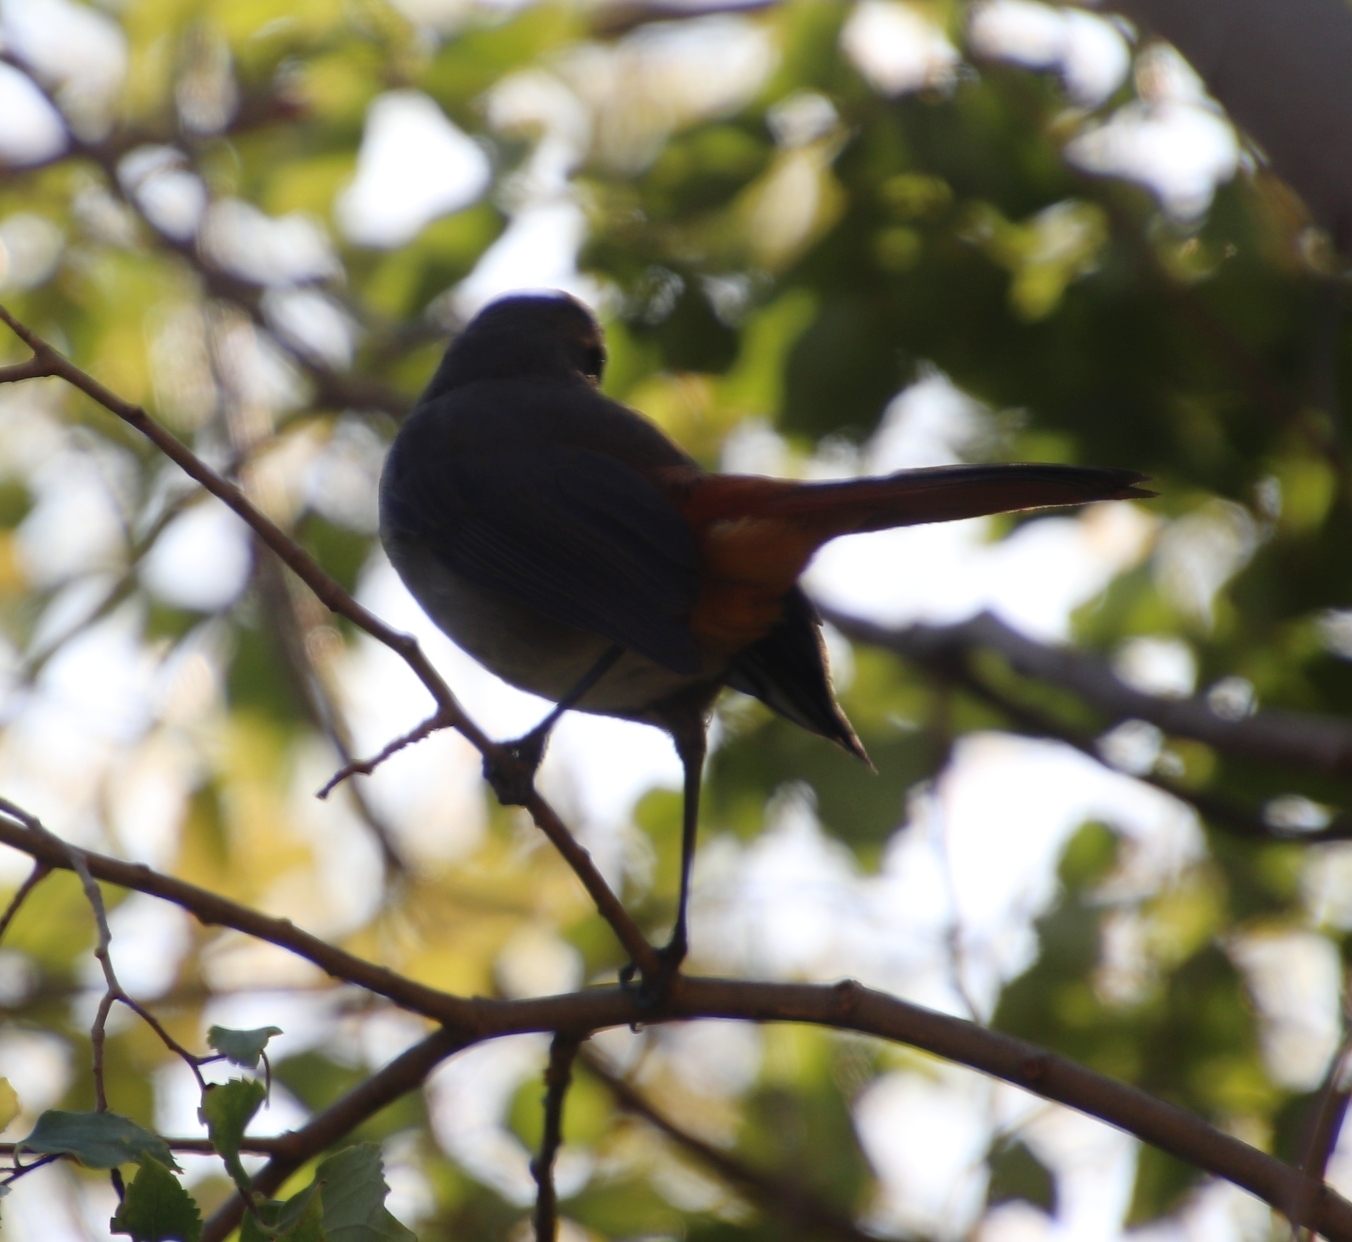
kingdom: Animalia
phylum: Chordata
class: Aves
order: Passeriformes
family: Muscicapidae
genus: Cossypha
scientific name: Cossypha caffra
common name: Cape robin-chat
